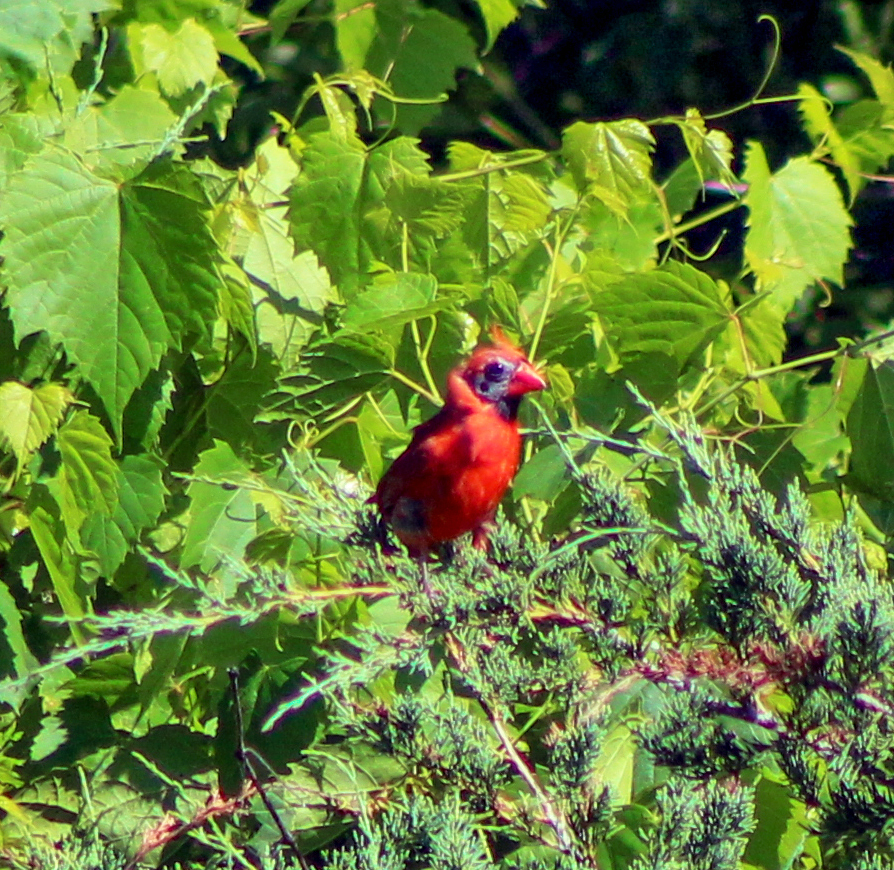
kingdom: Animalia
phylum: Chordata
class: Aves
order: Passeriformes
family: Cardinalidae
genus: Cardinalis
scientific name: Cardinalis cardinalis
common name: Northern cardinal
